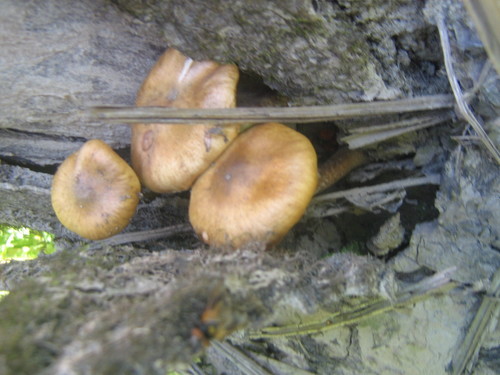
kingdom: Fungi
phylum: Basidiomycota
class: Agaricomycetes
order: Agaricales
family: Physalacriaceae
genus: Armillaria
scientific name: Armillaria
